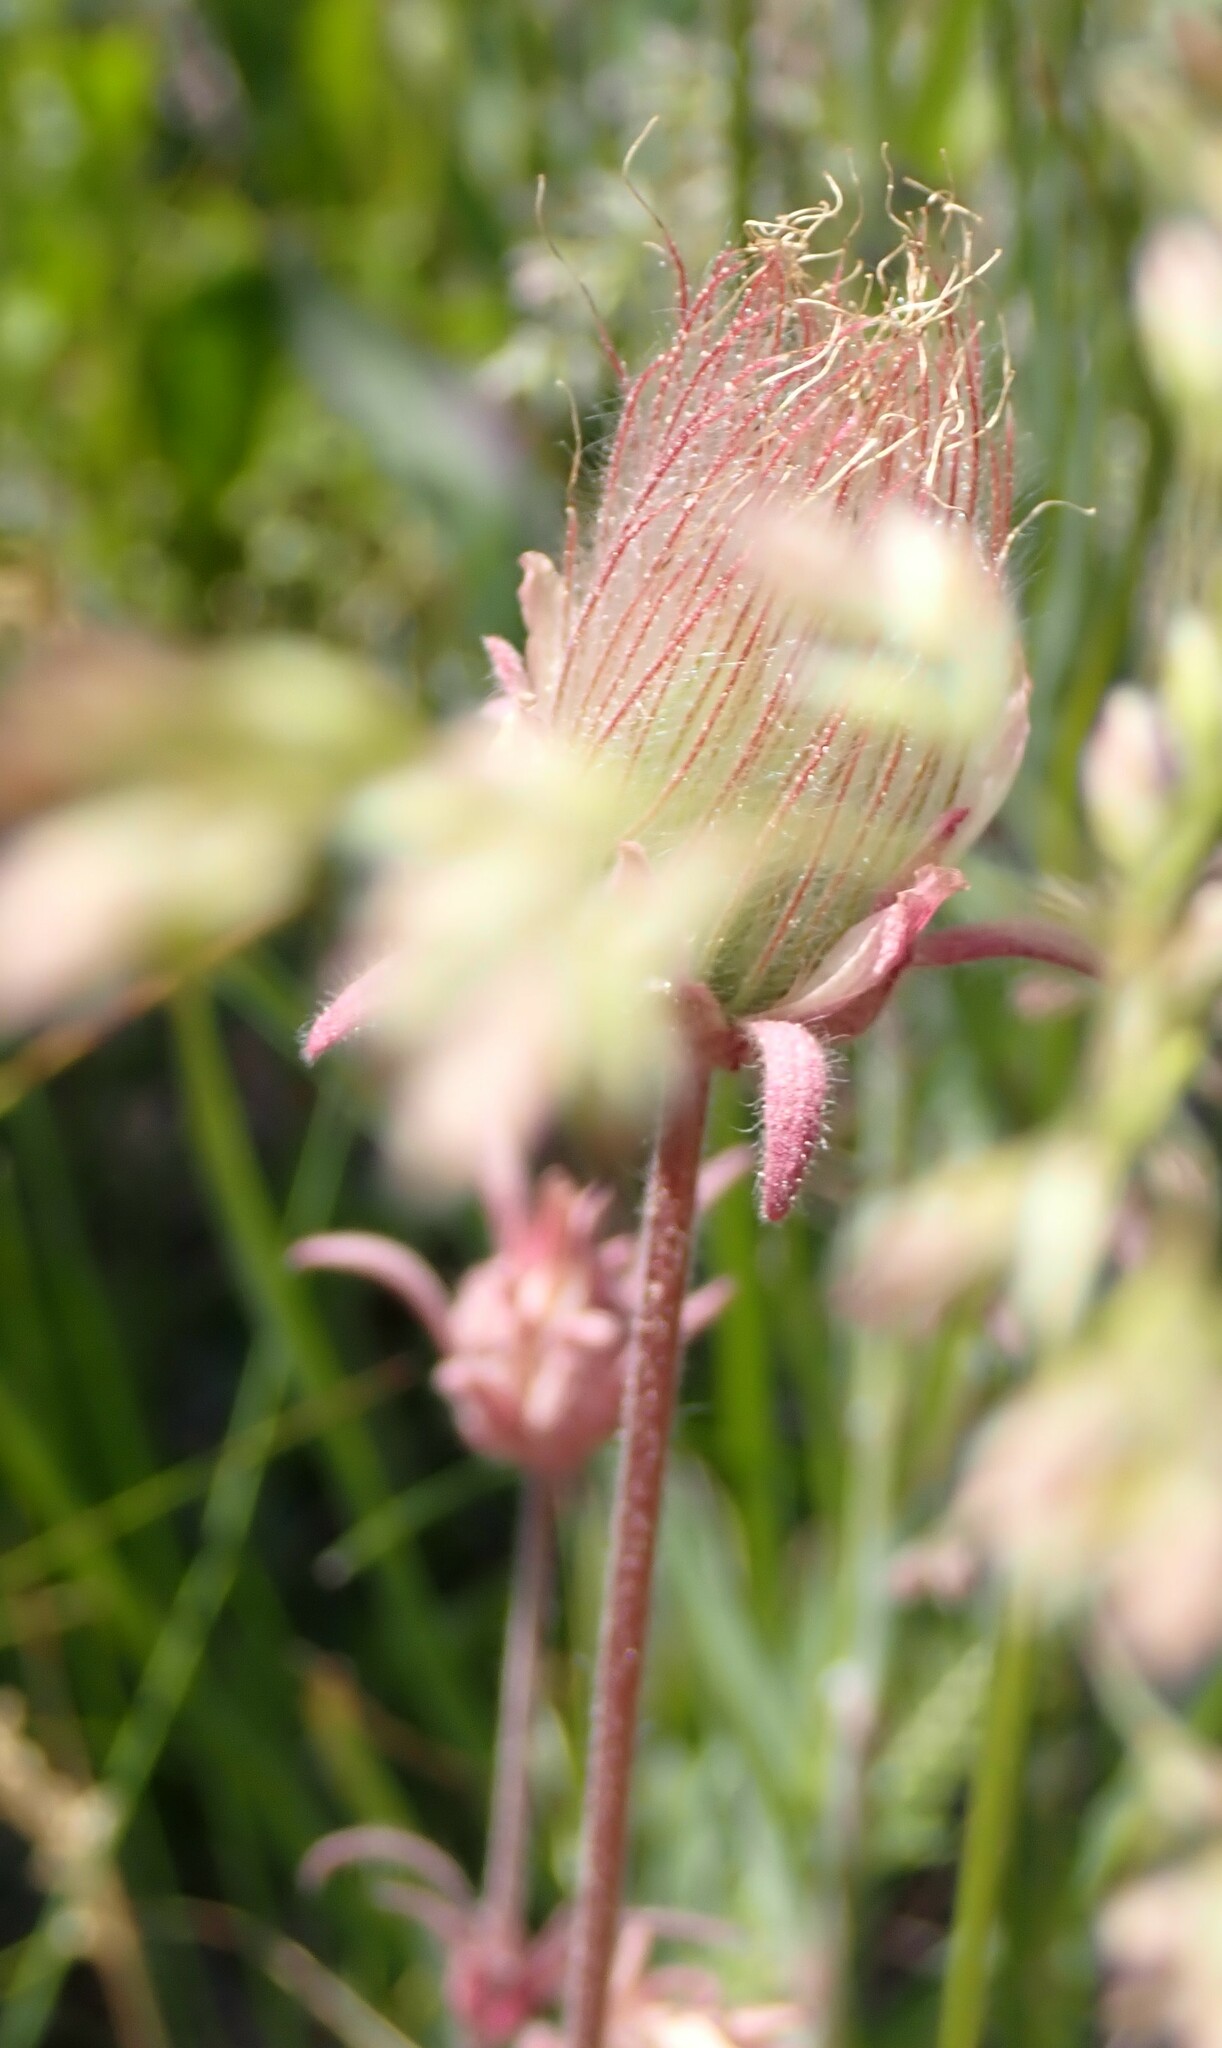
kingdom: Plantae
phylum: Tracheophyta
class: Magnoliopsida
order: Rosales
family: Rosaceae
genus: Geum
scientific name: Geum triflorum
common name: Old man's whiskers
